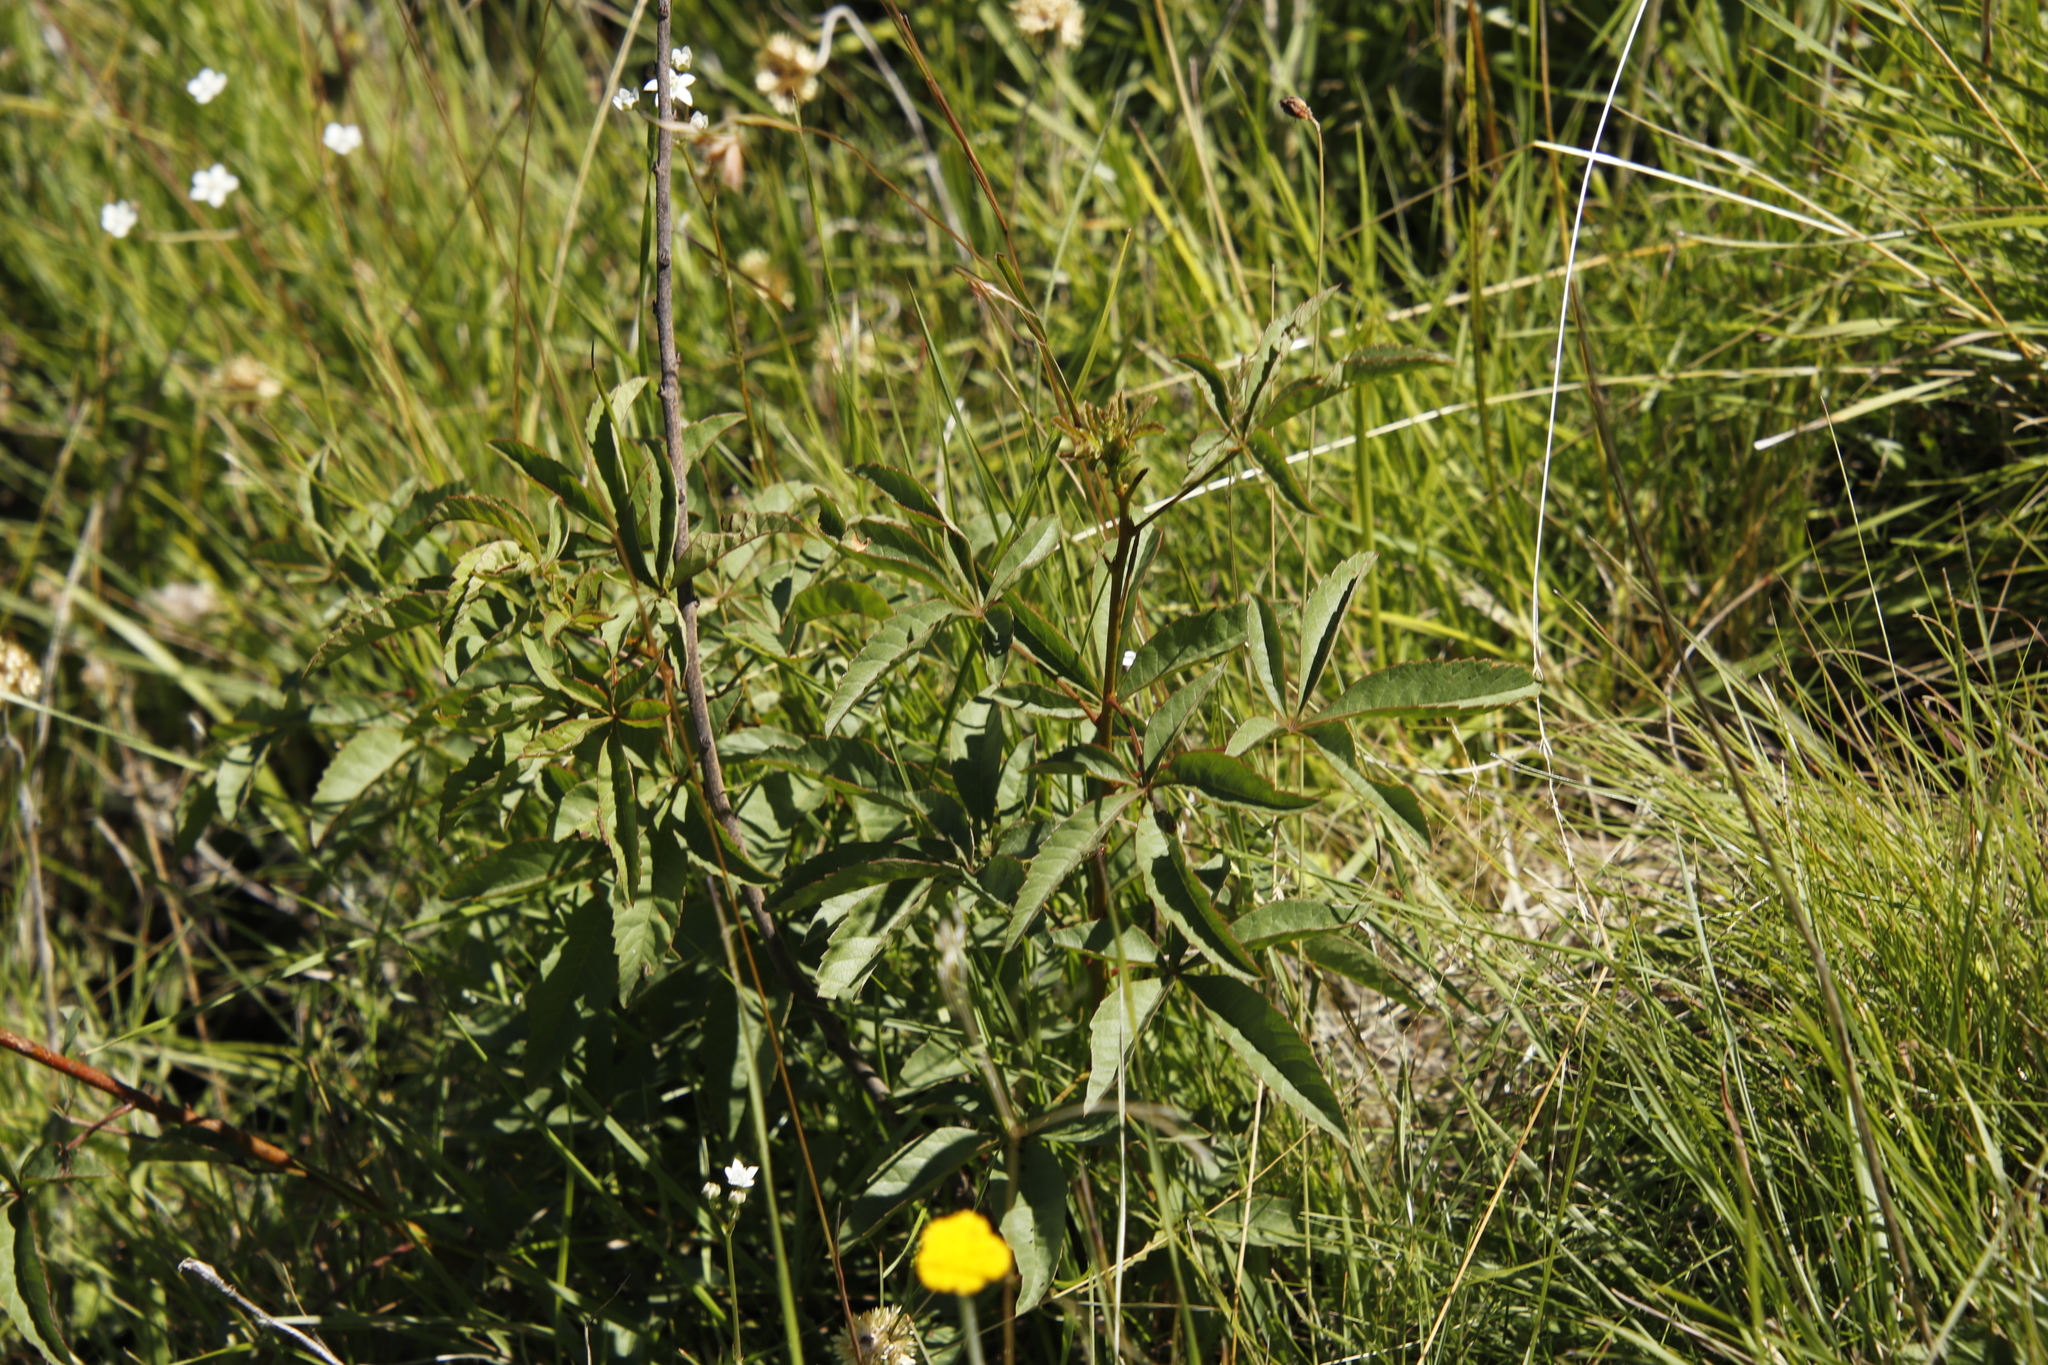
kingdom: Plantae
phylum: Tracheophyta
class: Magnoliopsida
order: Sapindales
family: Anacardiaceae
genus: Searsia
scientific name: Searsia montana
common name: Drakensberg karee
